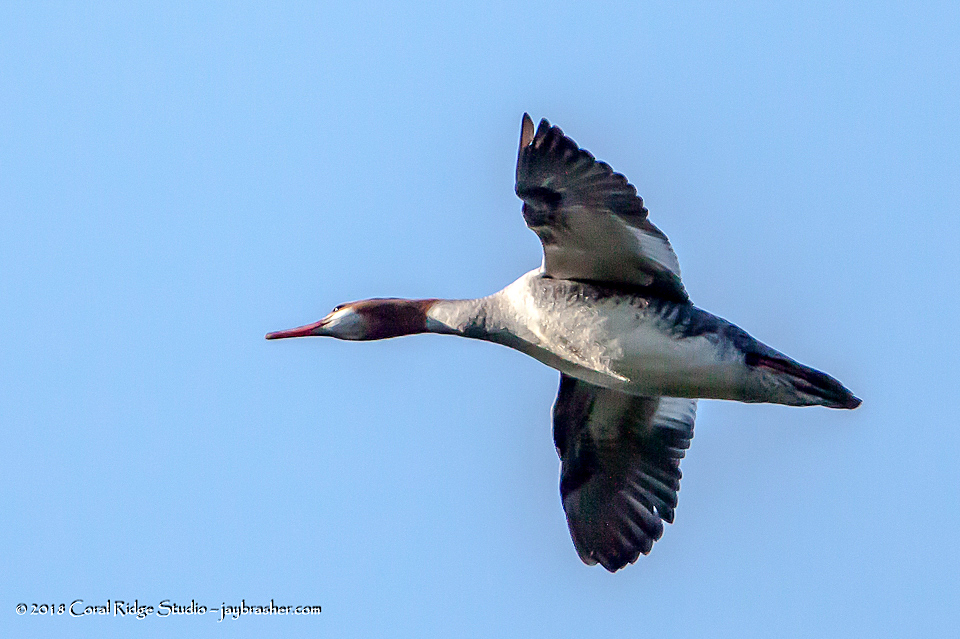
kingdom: Animalia
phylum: Chordata
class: Aves
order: Anseriformes
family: Anatidae
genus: Mergus
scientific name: Mergus merganser
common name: Common merganser
